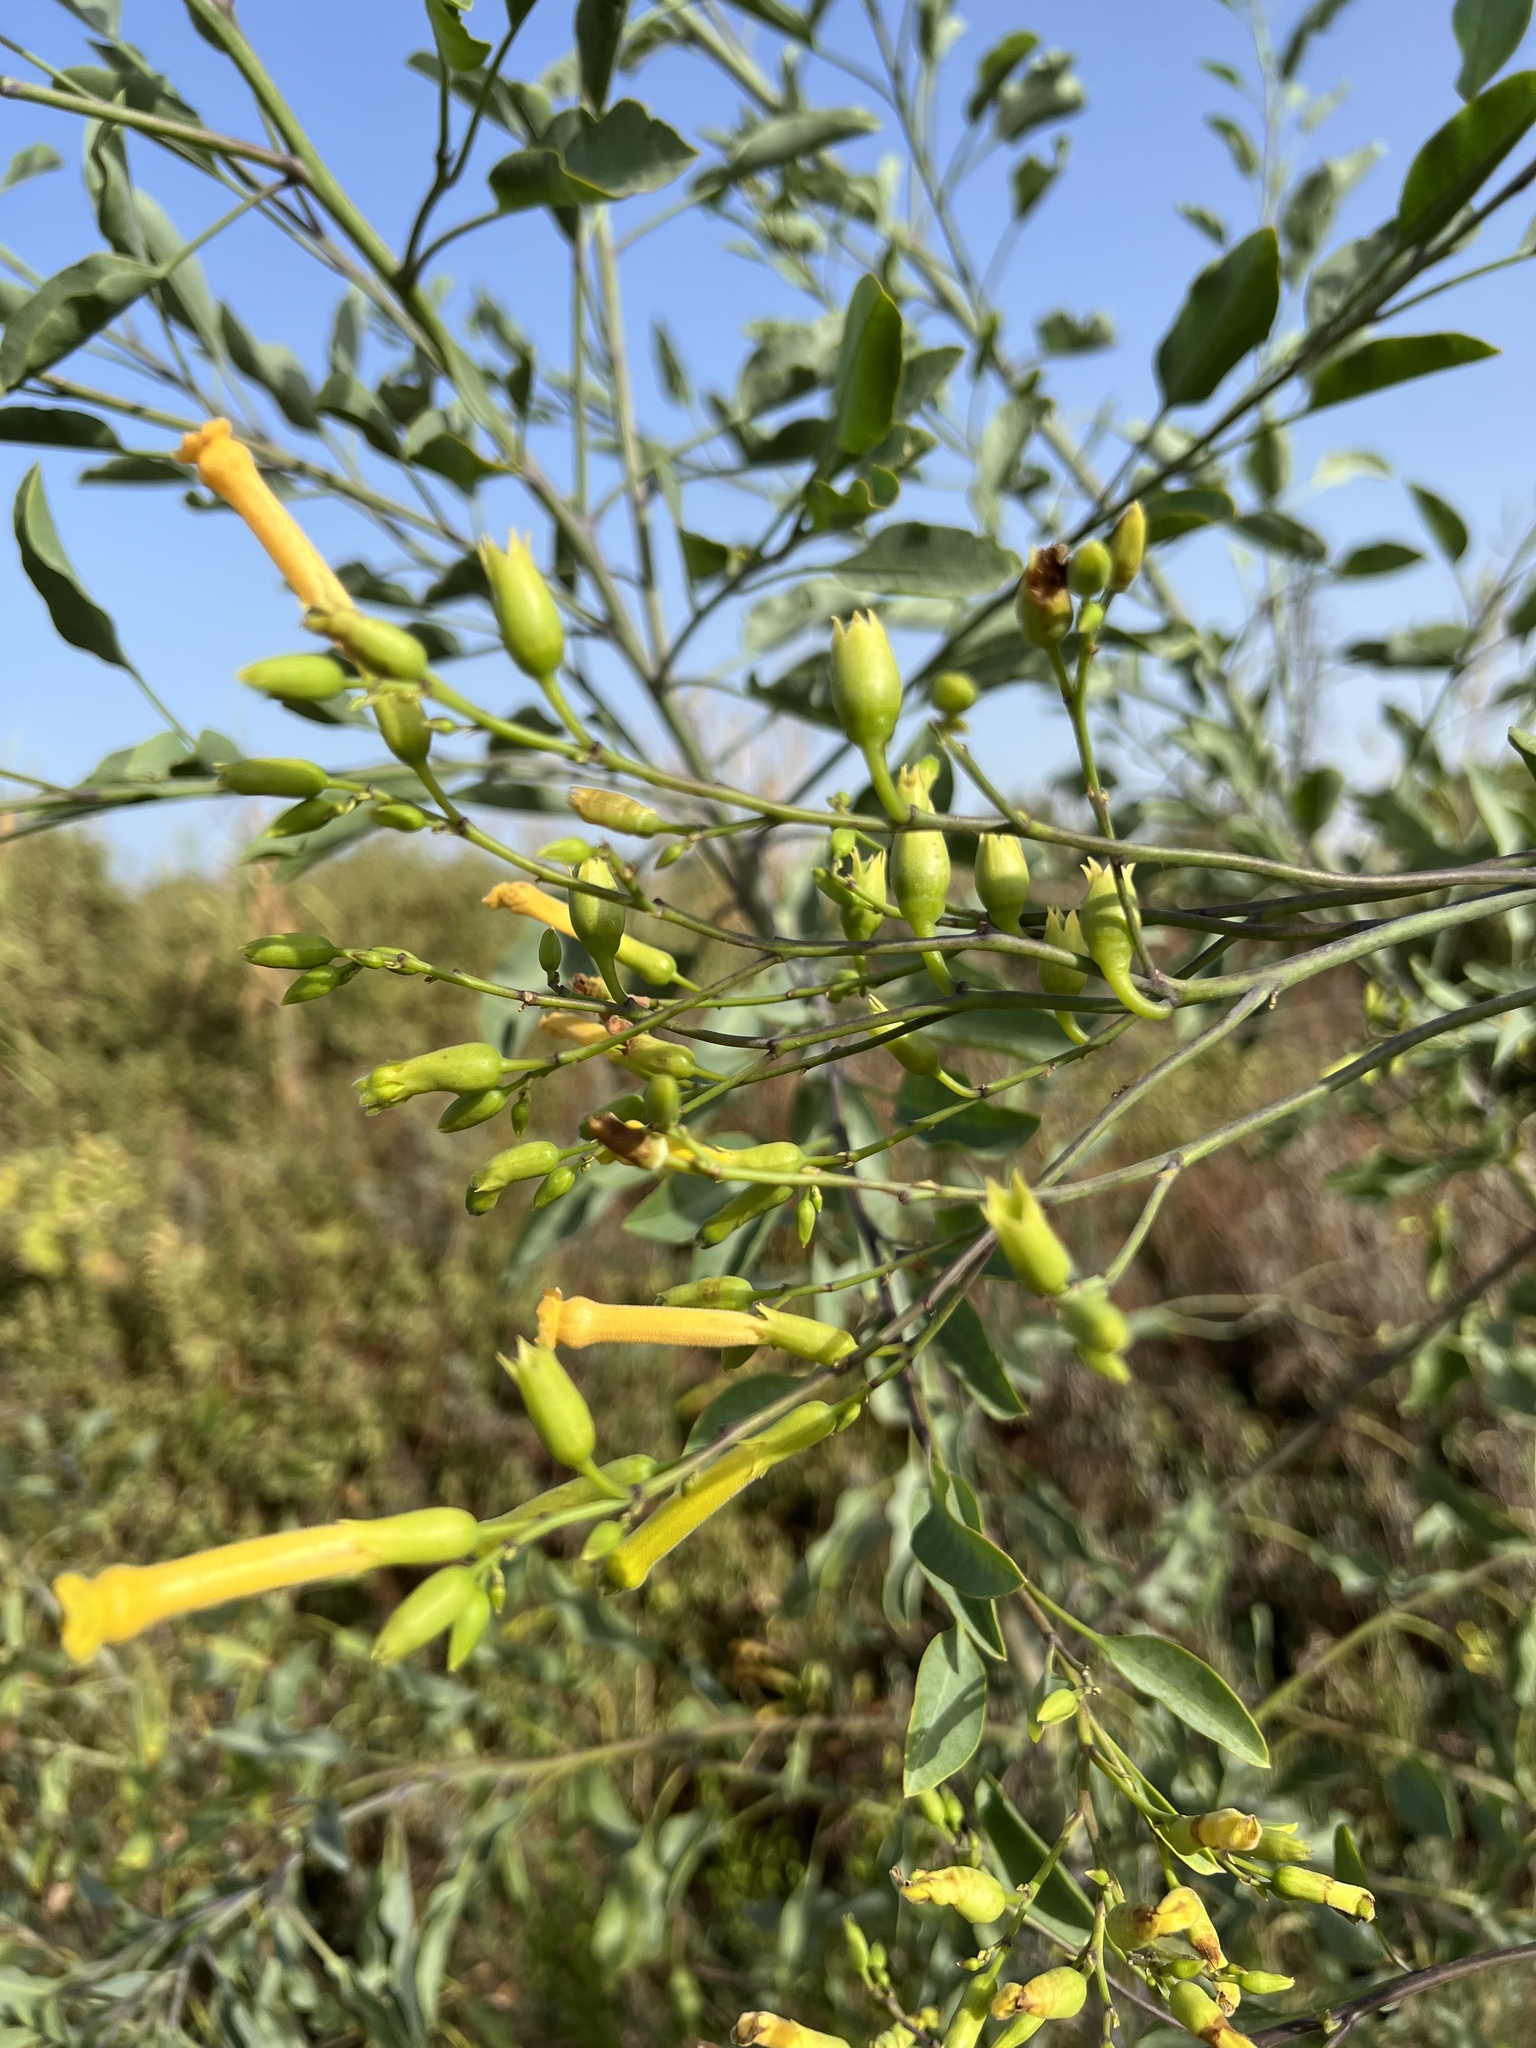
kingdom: Plantae
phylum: Tracheophyta
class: Magnoliopsida
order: Solanales
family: Solanaceae
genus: Nicotiana
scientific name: Nicotiana glauca
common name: Tree tobacco
